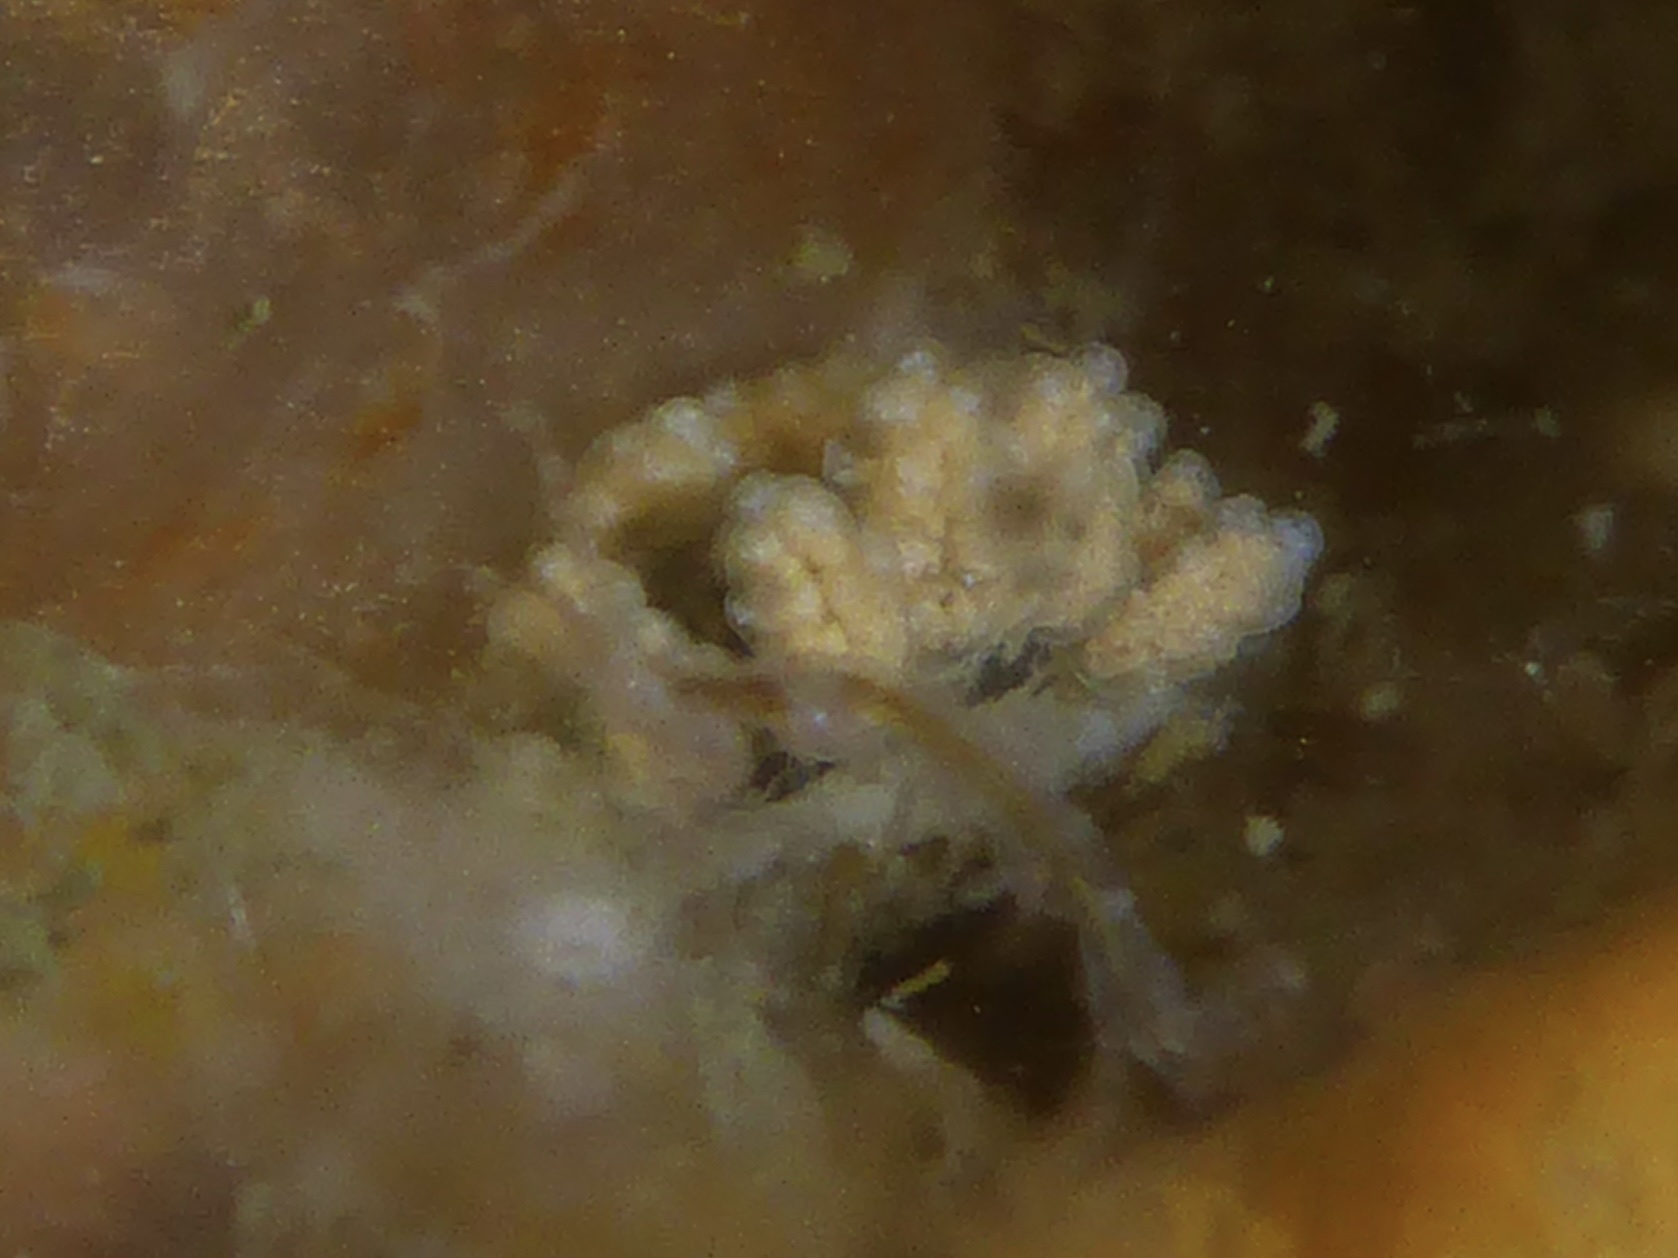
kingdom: Animalia
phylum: Mollusca
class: Gastropoda
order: Nudibranchia
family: Dotidae
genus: Doto
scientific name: Doto kya
